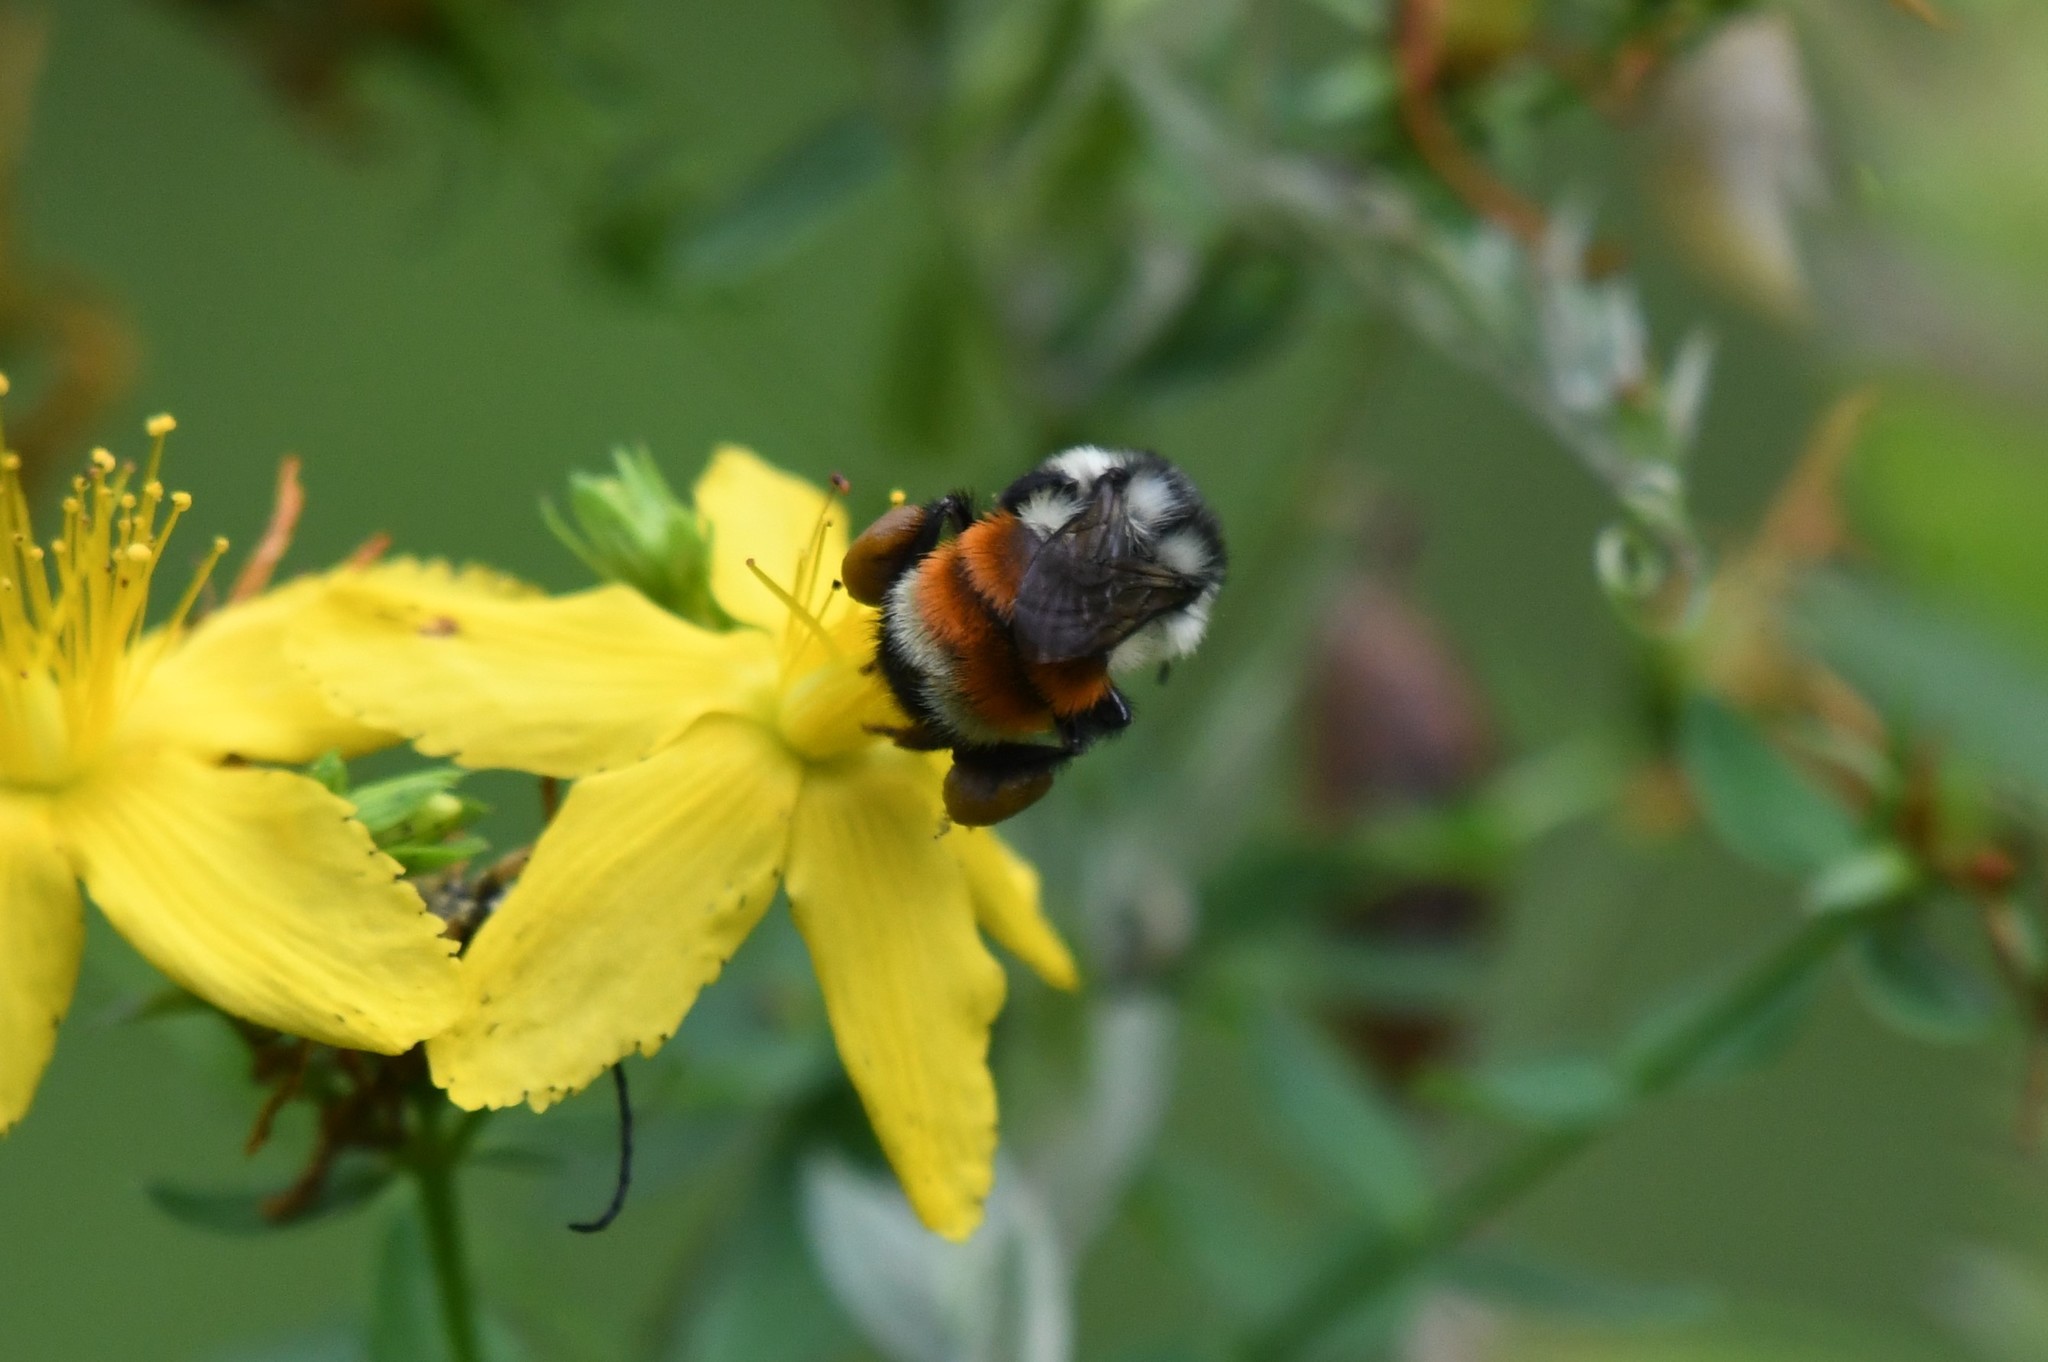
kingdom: Animalia
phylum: Arthropoda
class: Insecta
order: Hymenoptera
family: Apidae
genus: Bombus
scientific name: Bombus ternarius
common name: Tri-colored bumble bee
